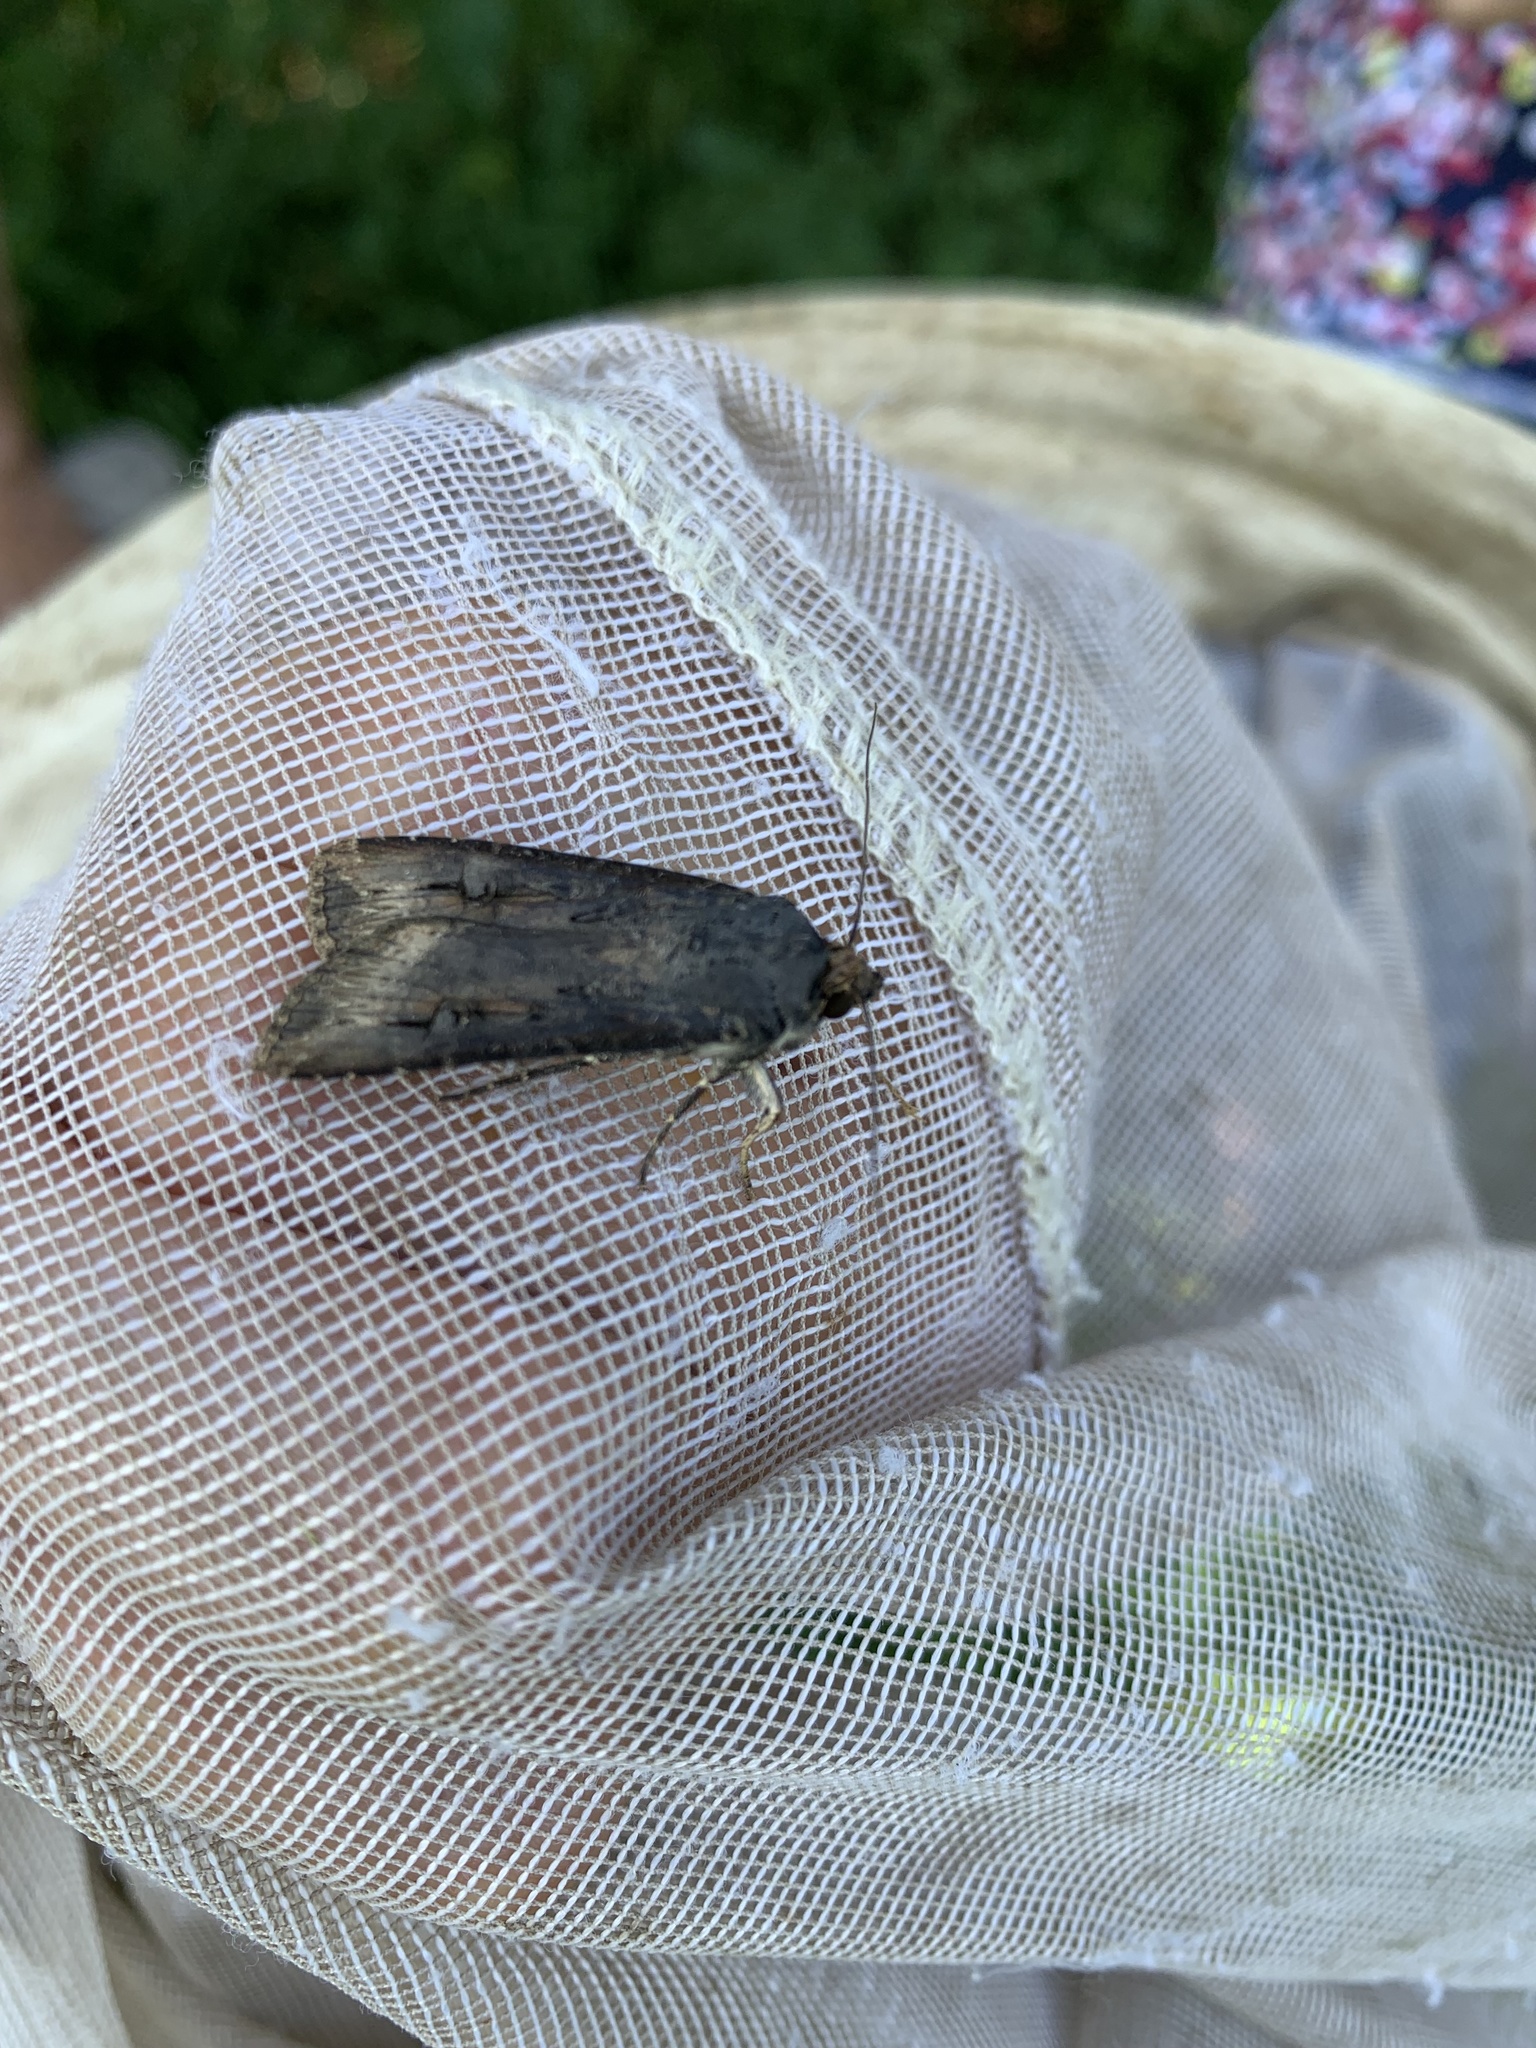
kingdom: Animalia
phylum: Arthropoda
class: Insecta
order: Lepidoptera
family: Noctuidae
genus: Agrotis
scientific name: Agrotis ipsilon
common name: Dark sword-grass
